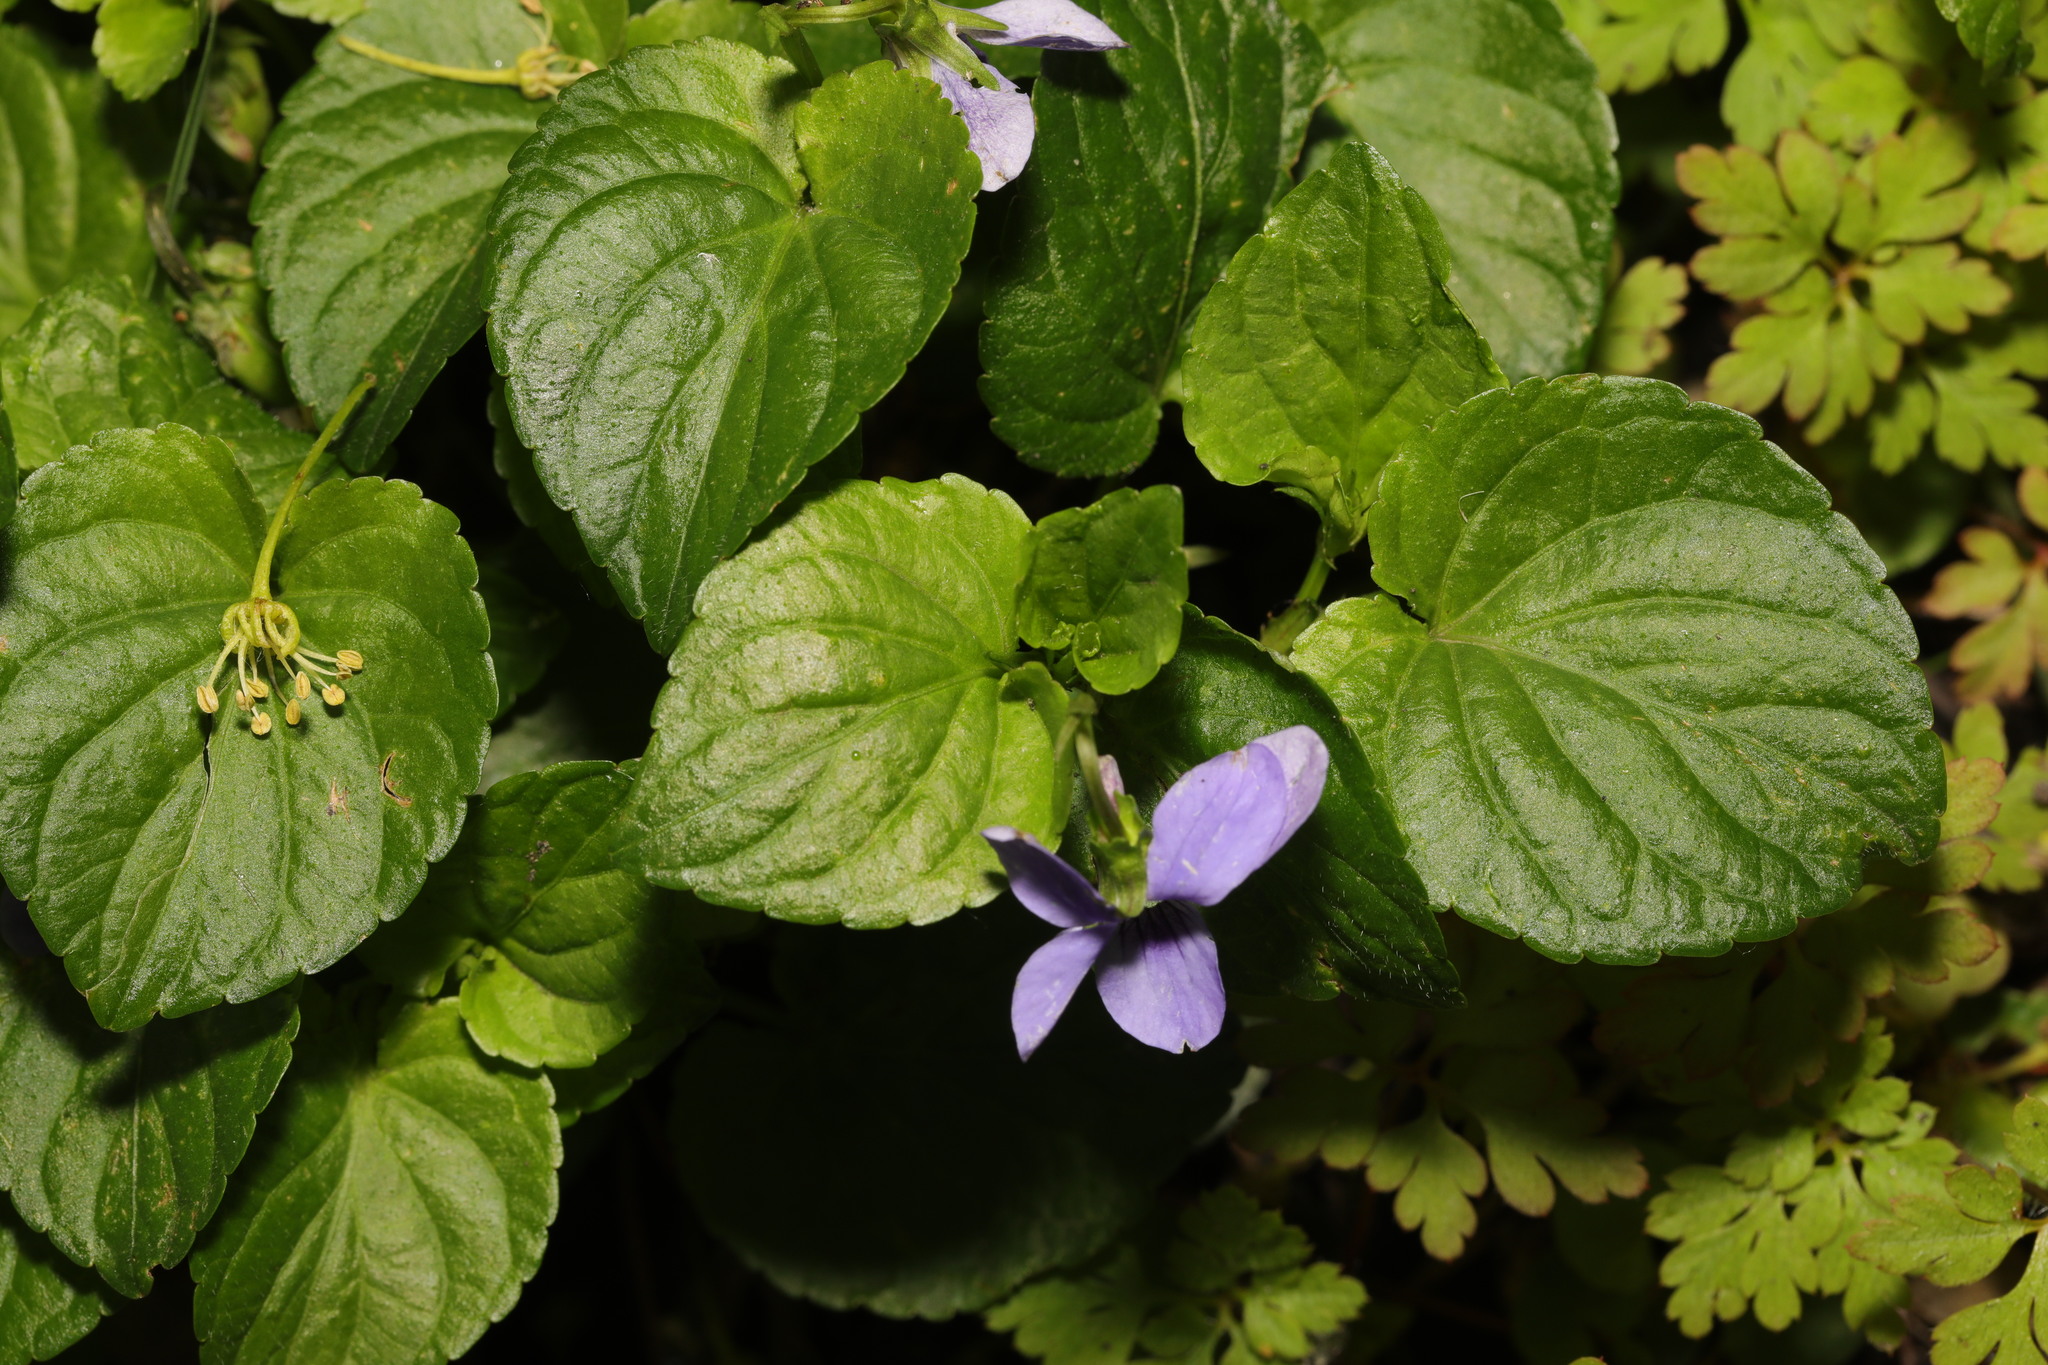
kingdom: Plantae
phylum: Tracheophyta
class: Magnoliopsida
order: Malpighiales
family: Violaceae
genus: Viola
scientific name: Viola riviniana
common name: Common dog-violet
